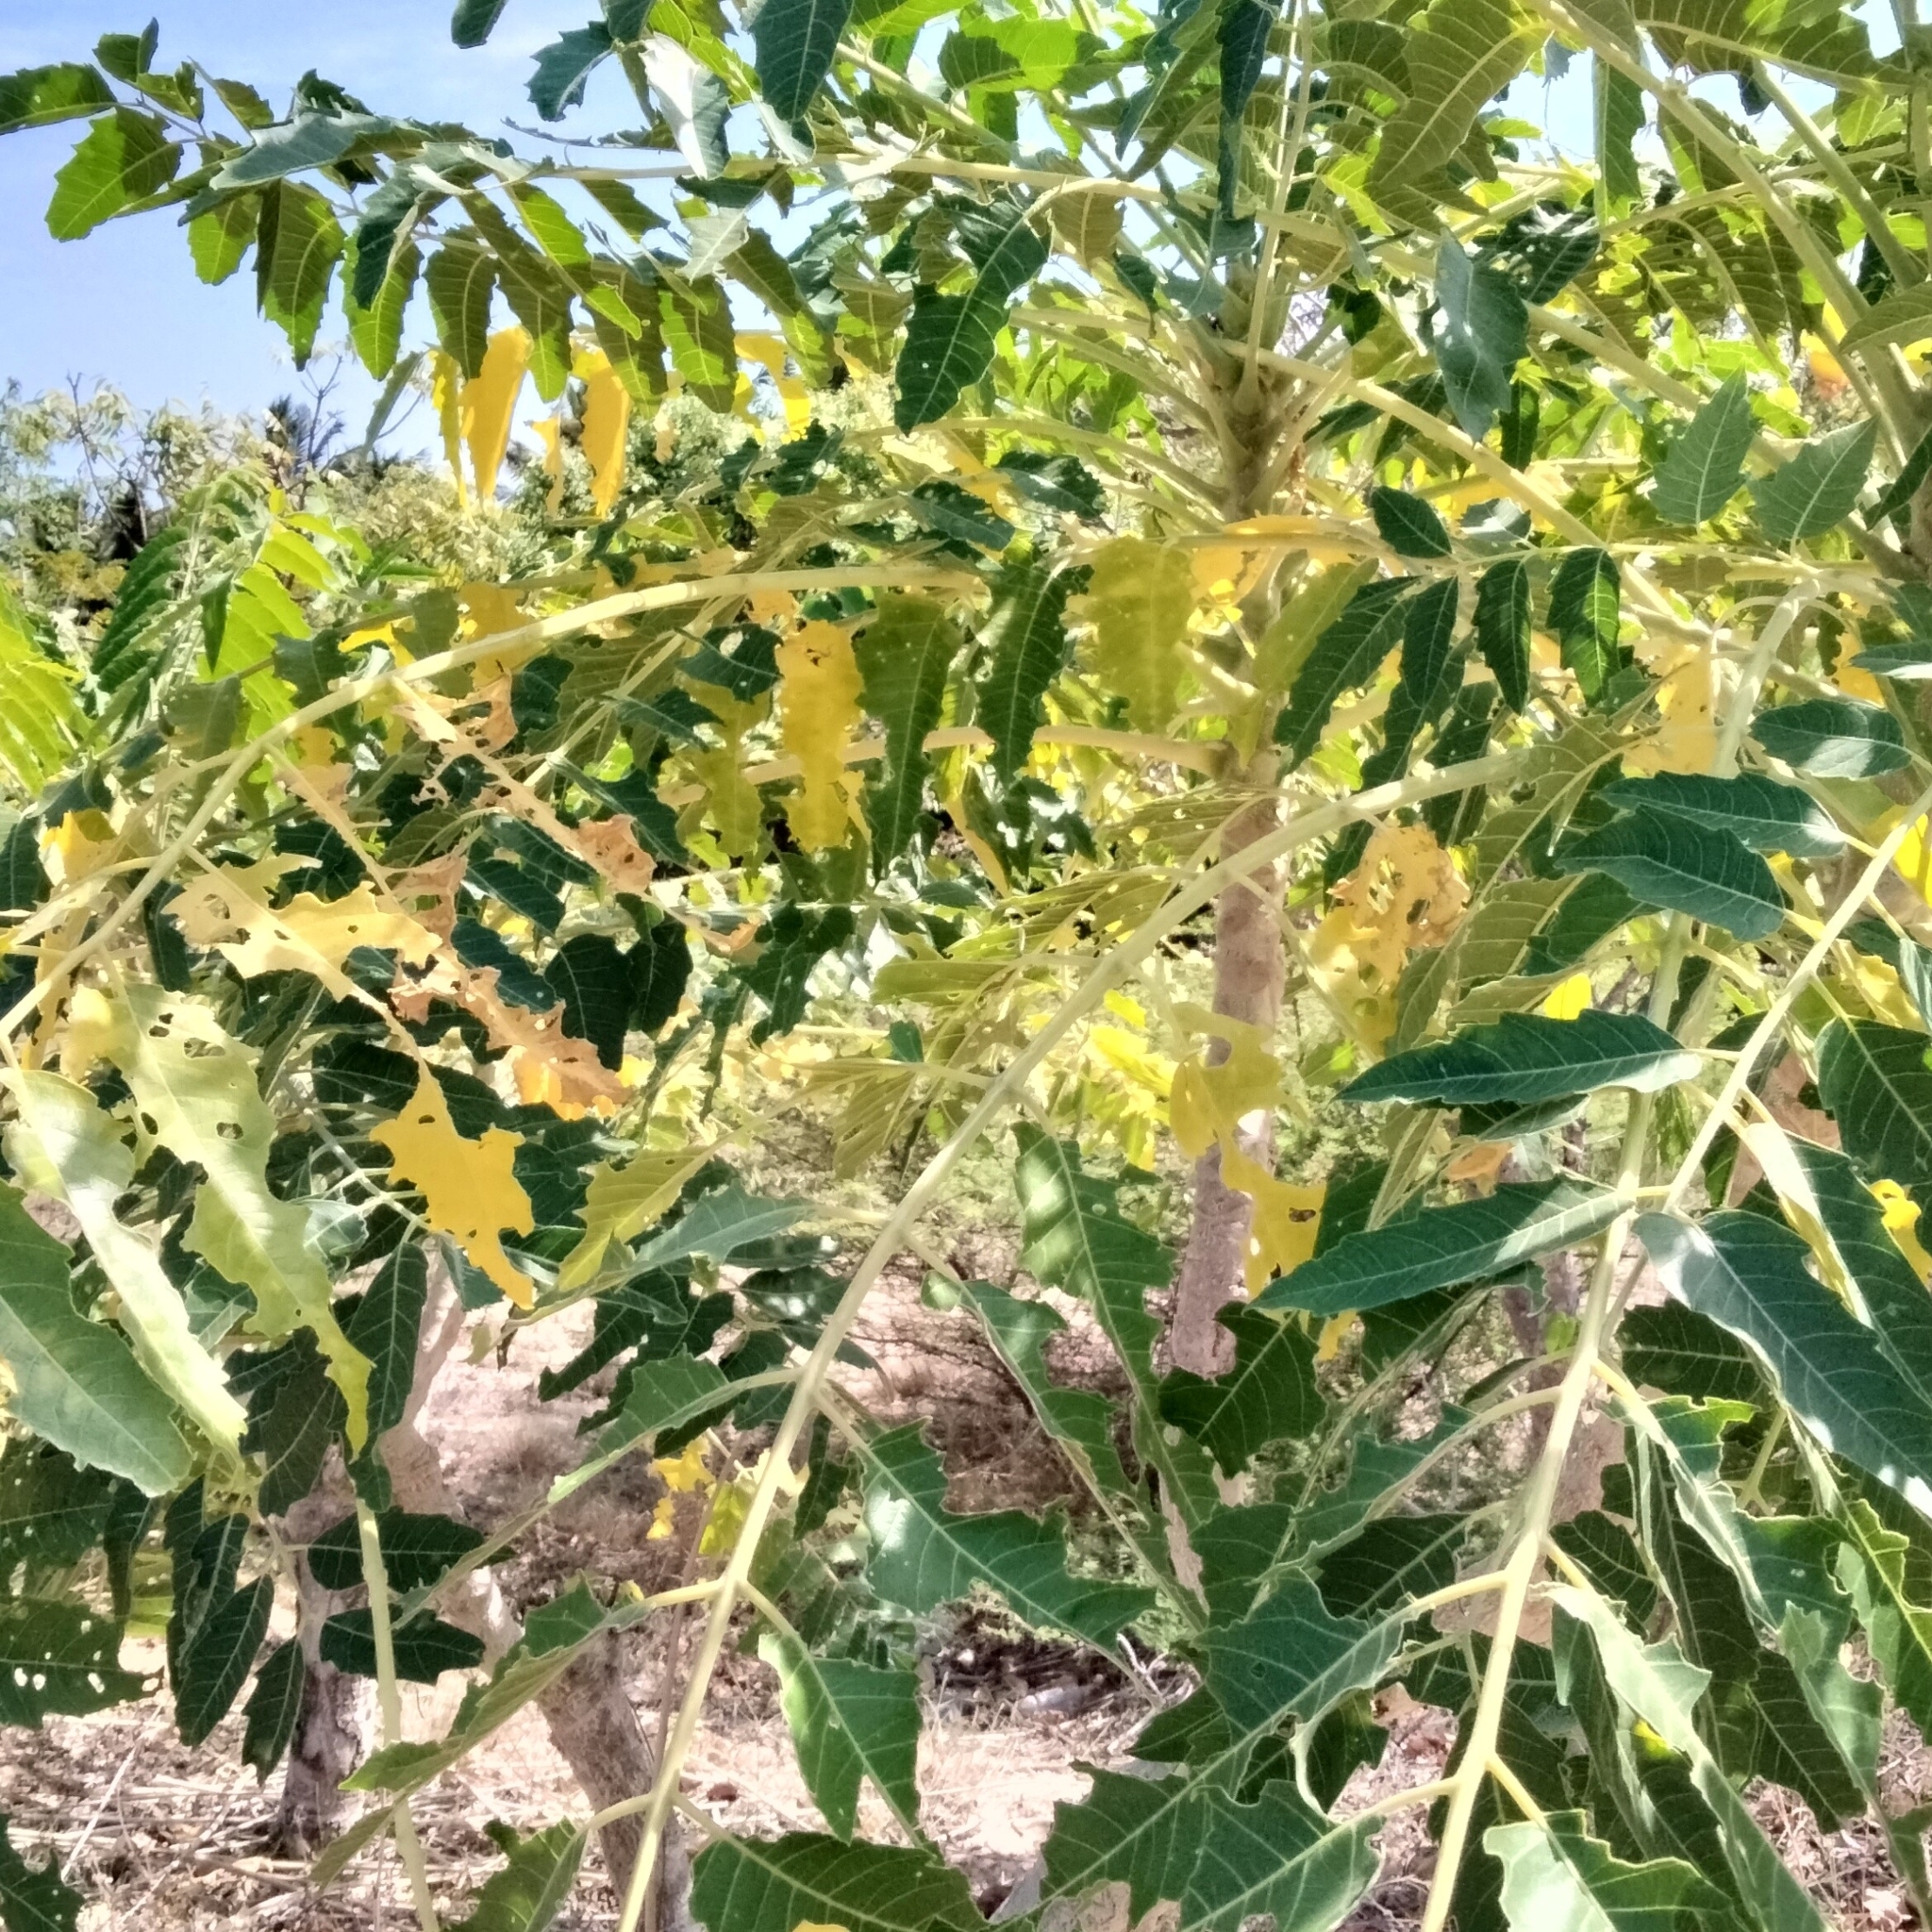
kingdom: Plantae
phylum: Tracheophyta
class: Magnoliopsida
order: Sapindales
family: Simaroubaceae
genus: Ailanthus
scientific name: Ailanthus excelsa
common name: Indian tree-of-heaven
